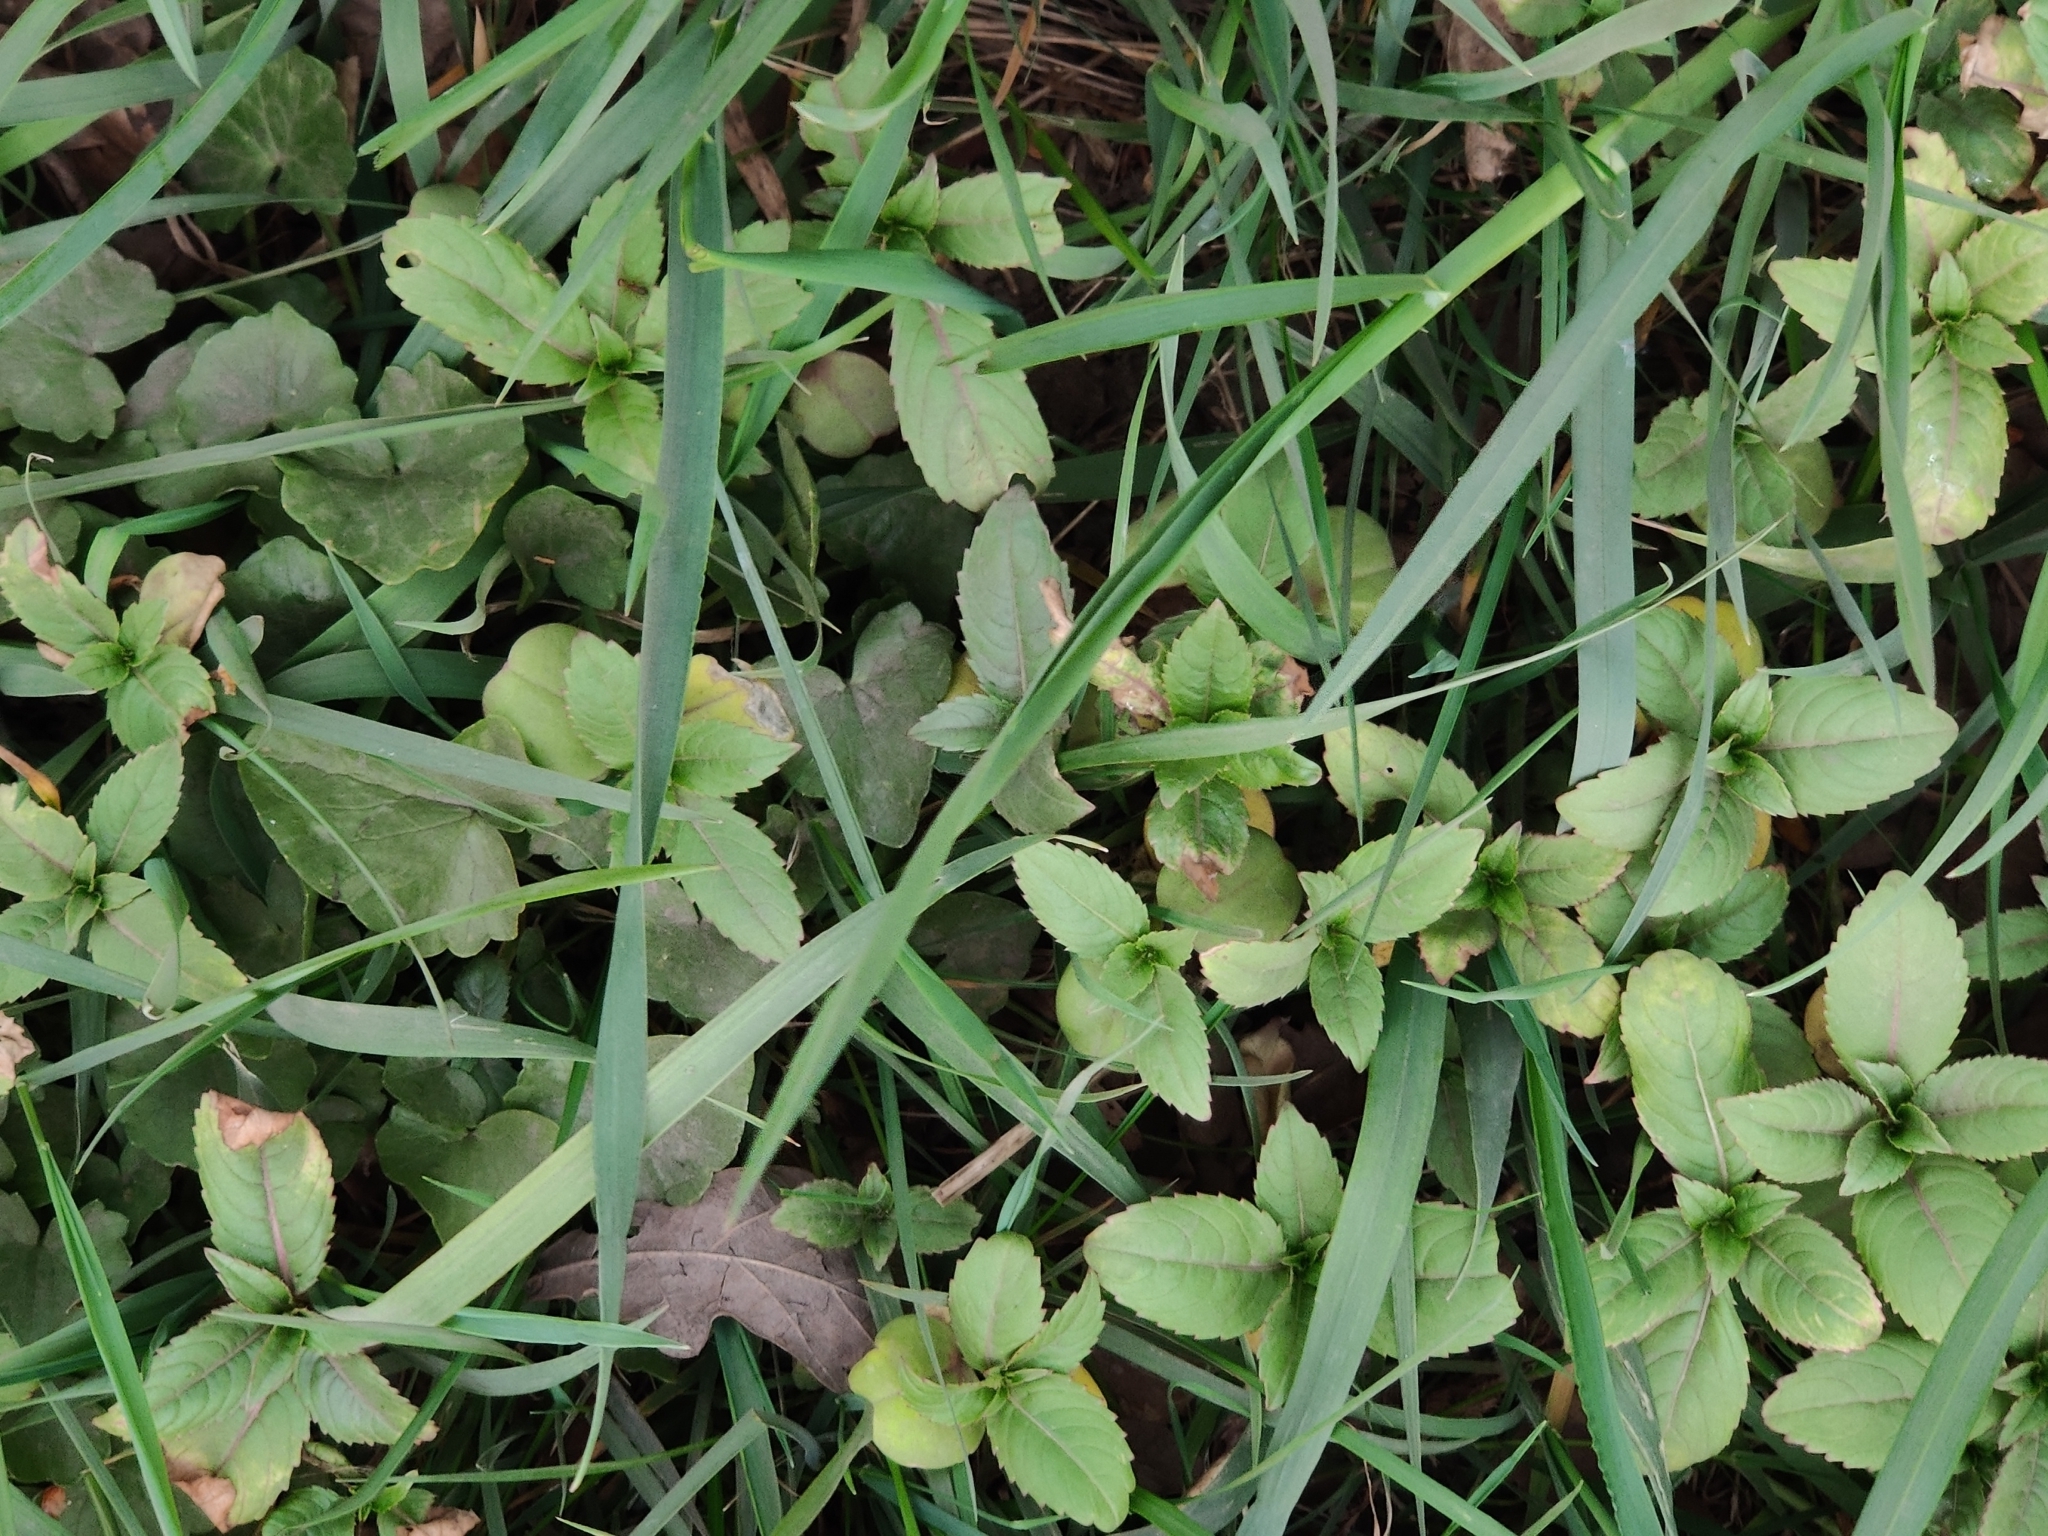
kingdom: Plantae
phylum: Tracheophyta
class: Magnoliopsida
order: Ericales
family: Balsaminaceae
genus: Impatiens
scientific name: Impatiens glandulifera
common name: Himalayan balsam
